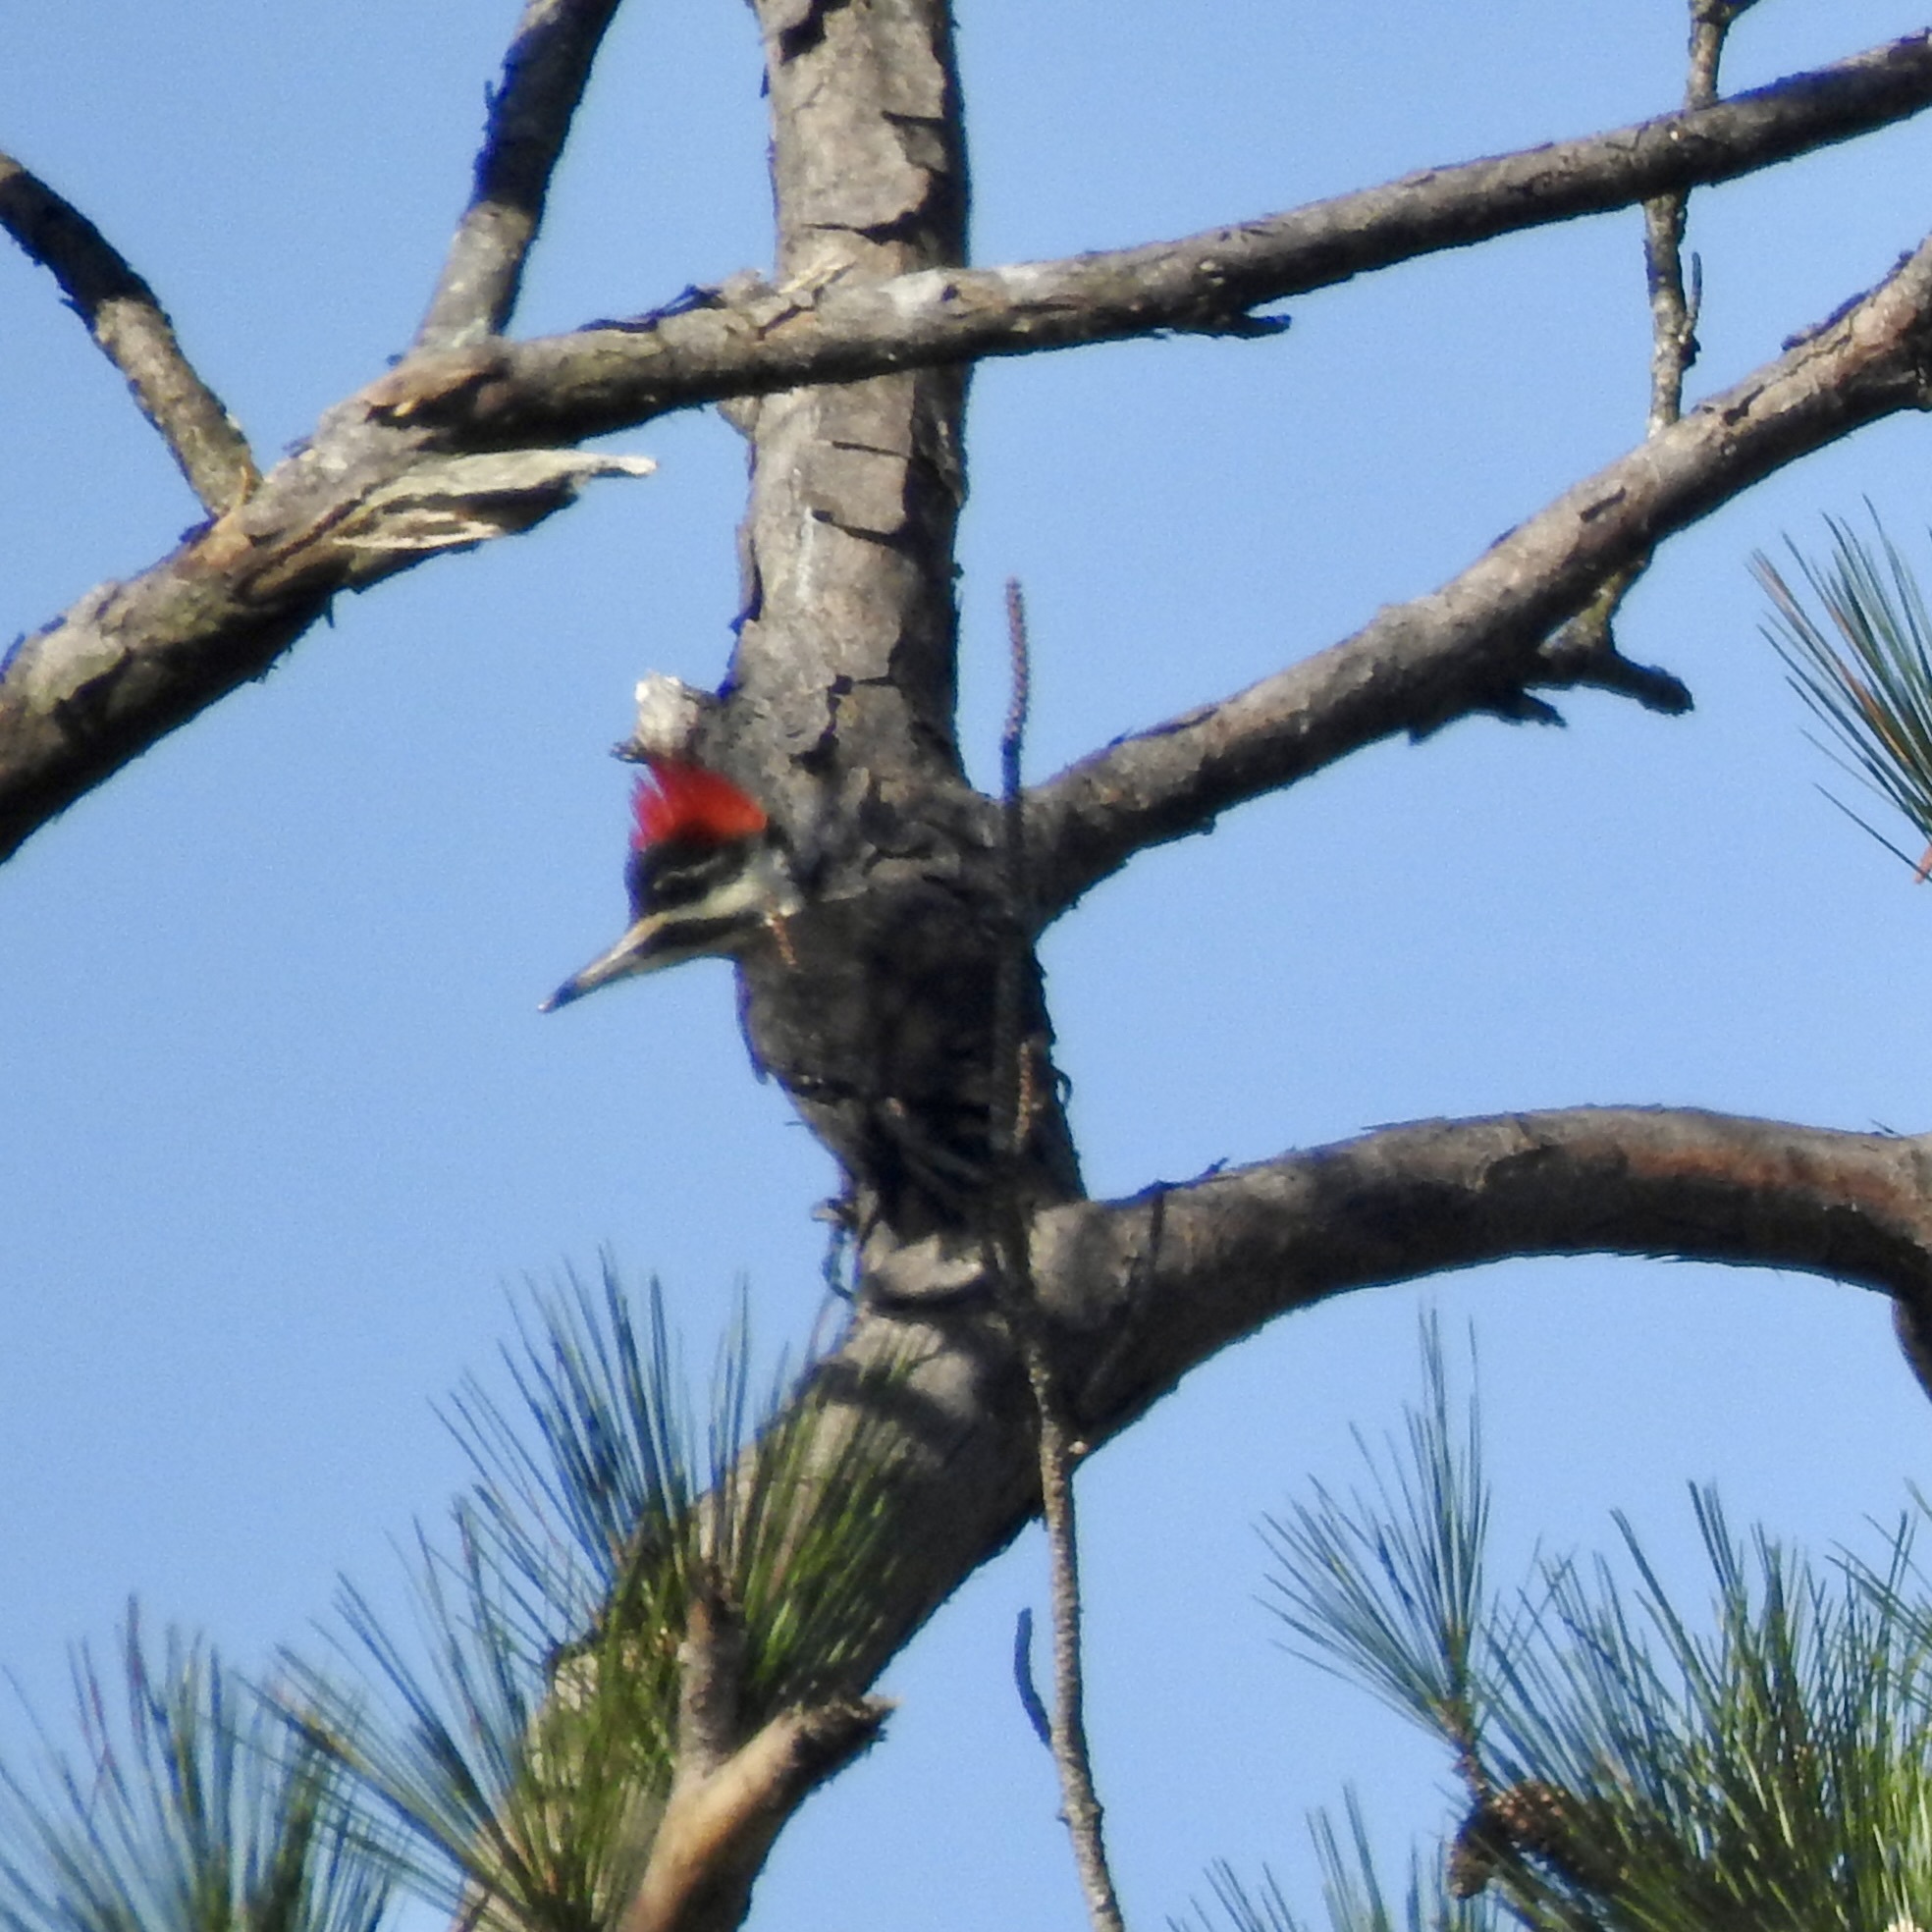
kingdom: Animalia
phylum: Chordata
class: Aves
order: Piciformes
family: Picidae
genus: Dryocopus
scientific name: Dryocopus pileatus
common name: Pileated woodpecker
